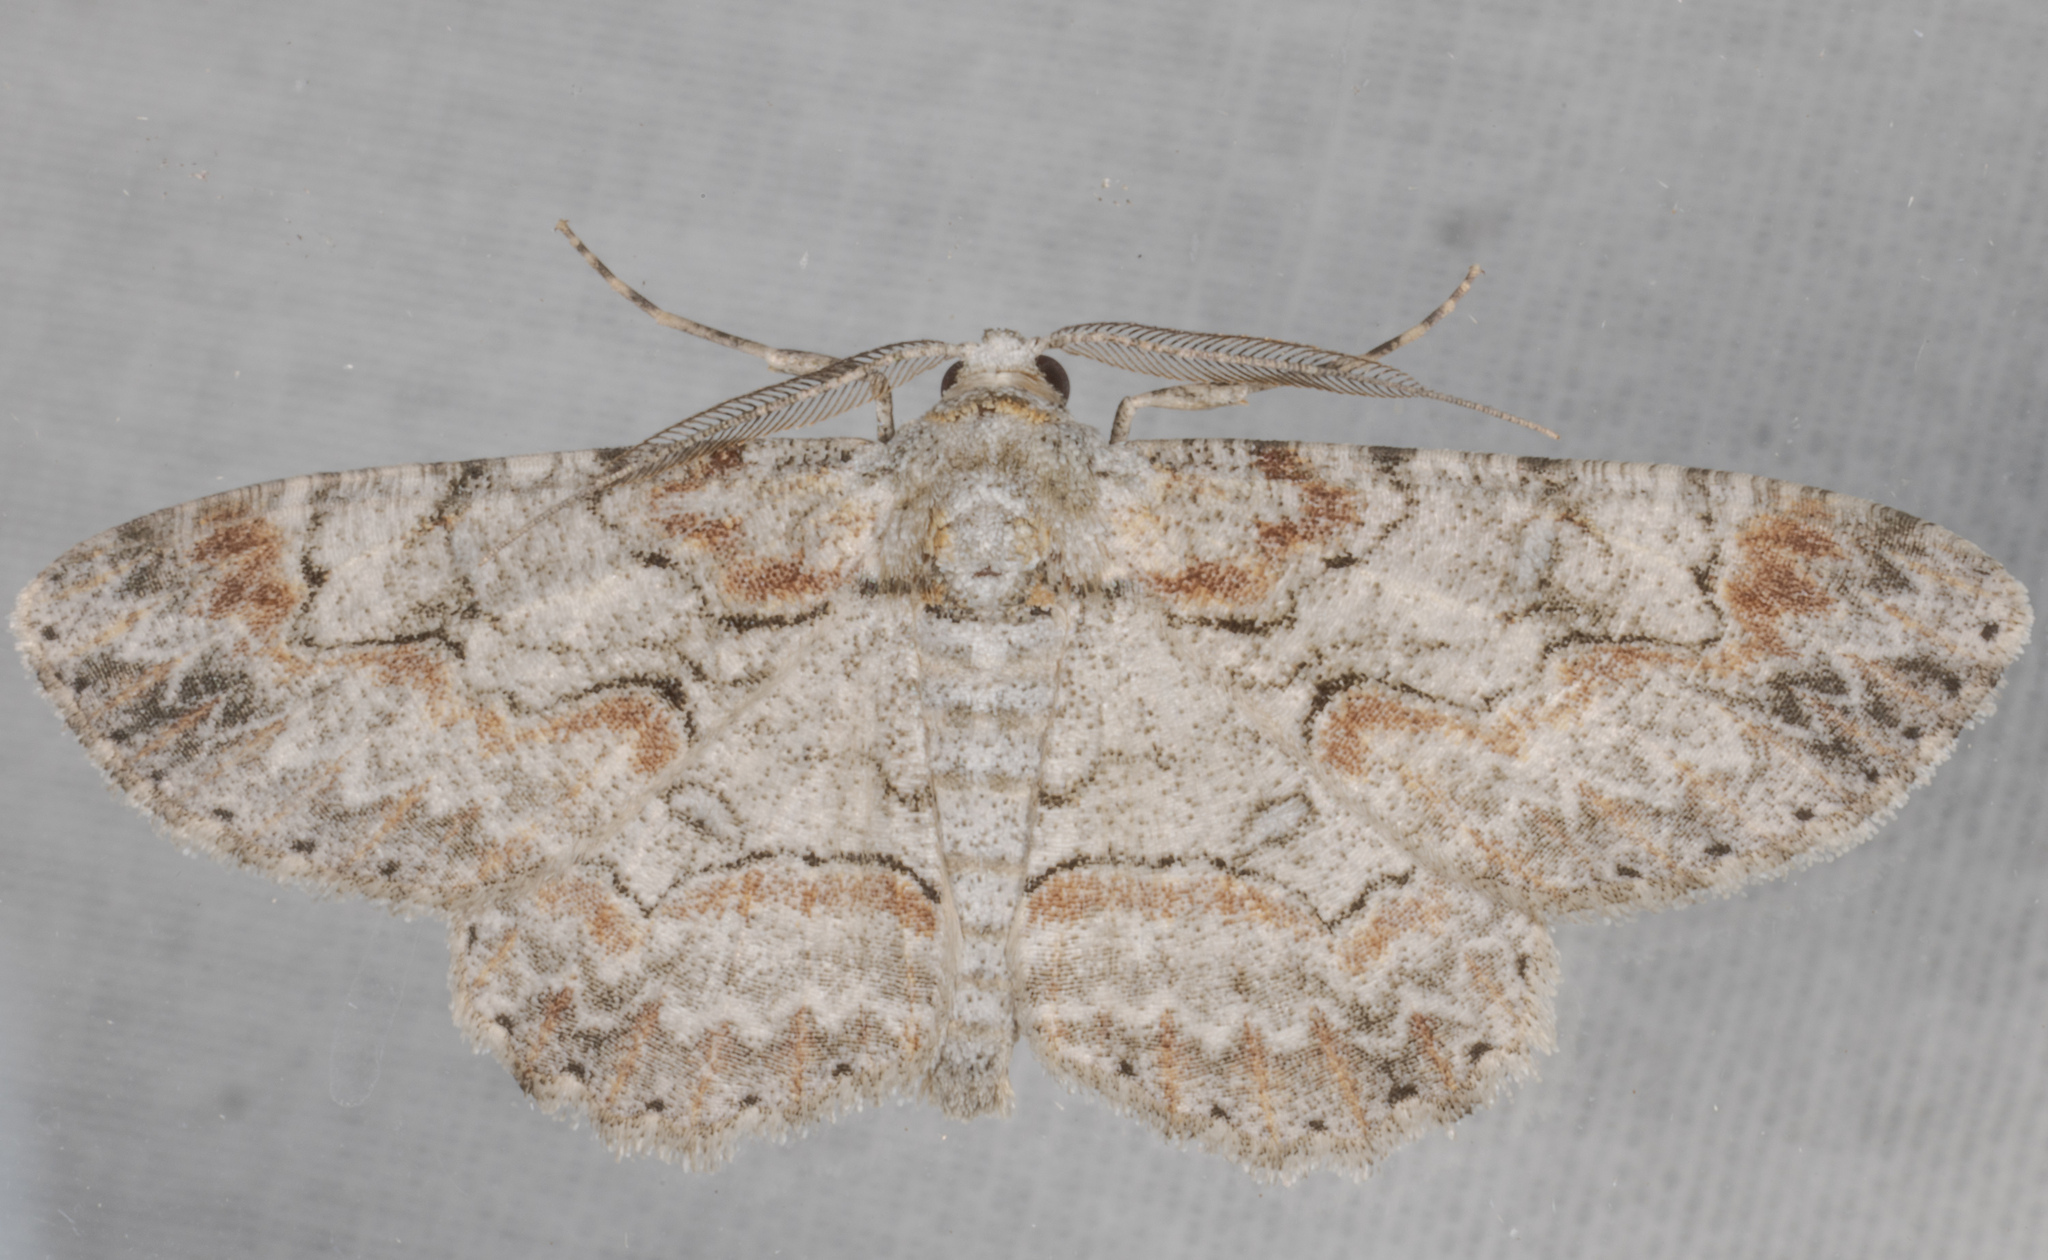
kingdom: Animalia
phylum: Arthropoda
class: Insecta
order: Lepidoptera
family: Geometridae
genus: Iridopsis
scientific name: Iridopsis defectaria
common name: Brown-shaded gray
